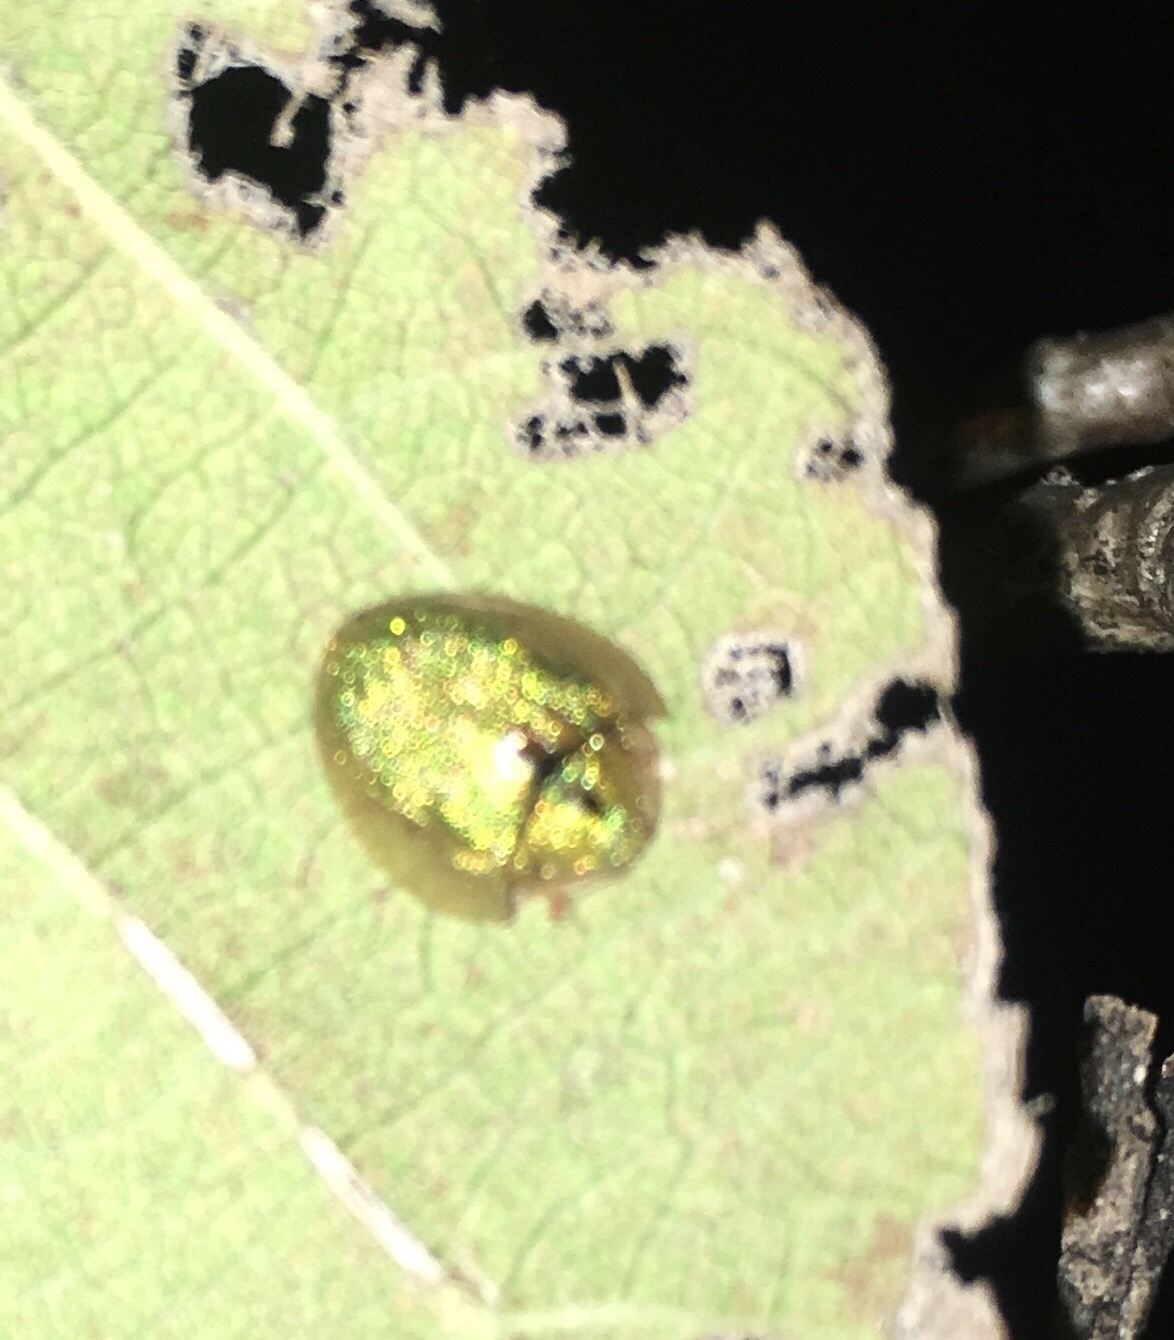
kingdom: Animalia
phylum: Arthropoda
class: Insecta
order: Coleoptera
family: Chrysomelidae
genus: Eurypepla
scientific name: Eurypepla calochroma
